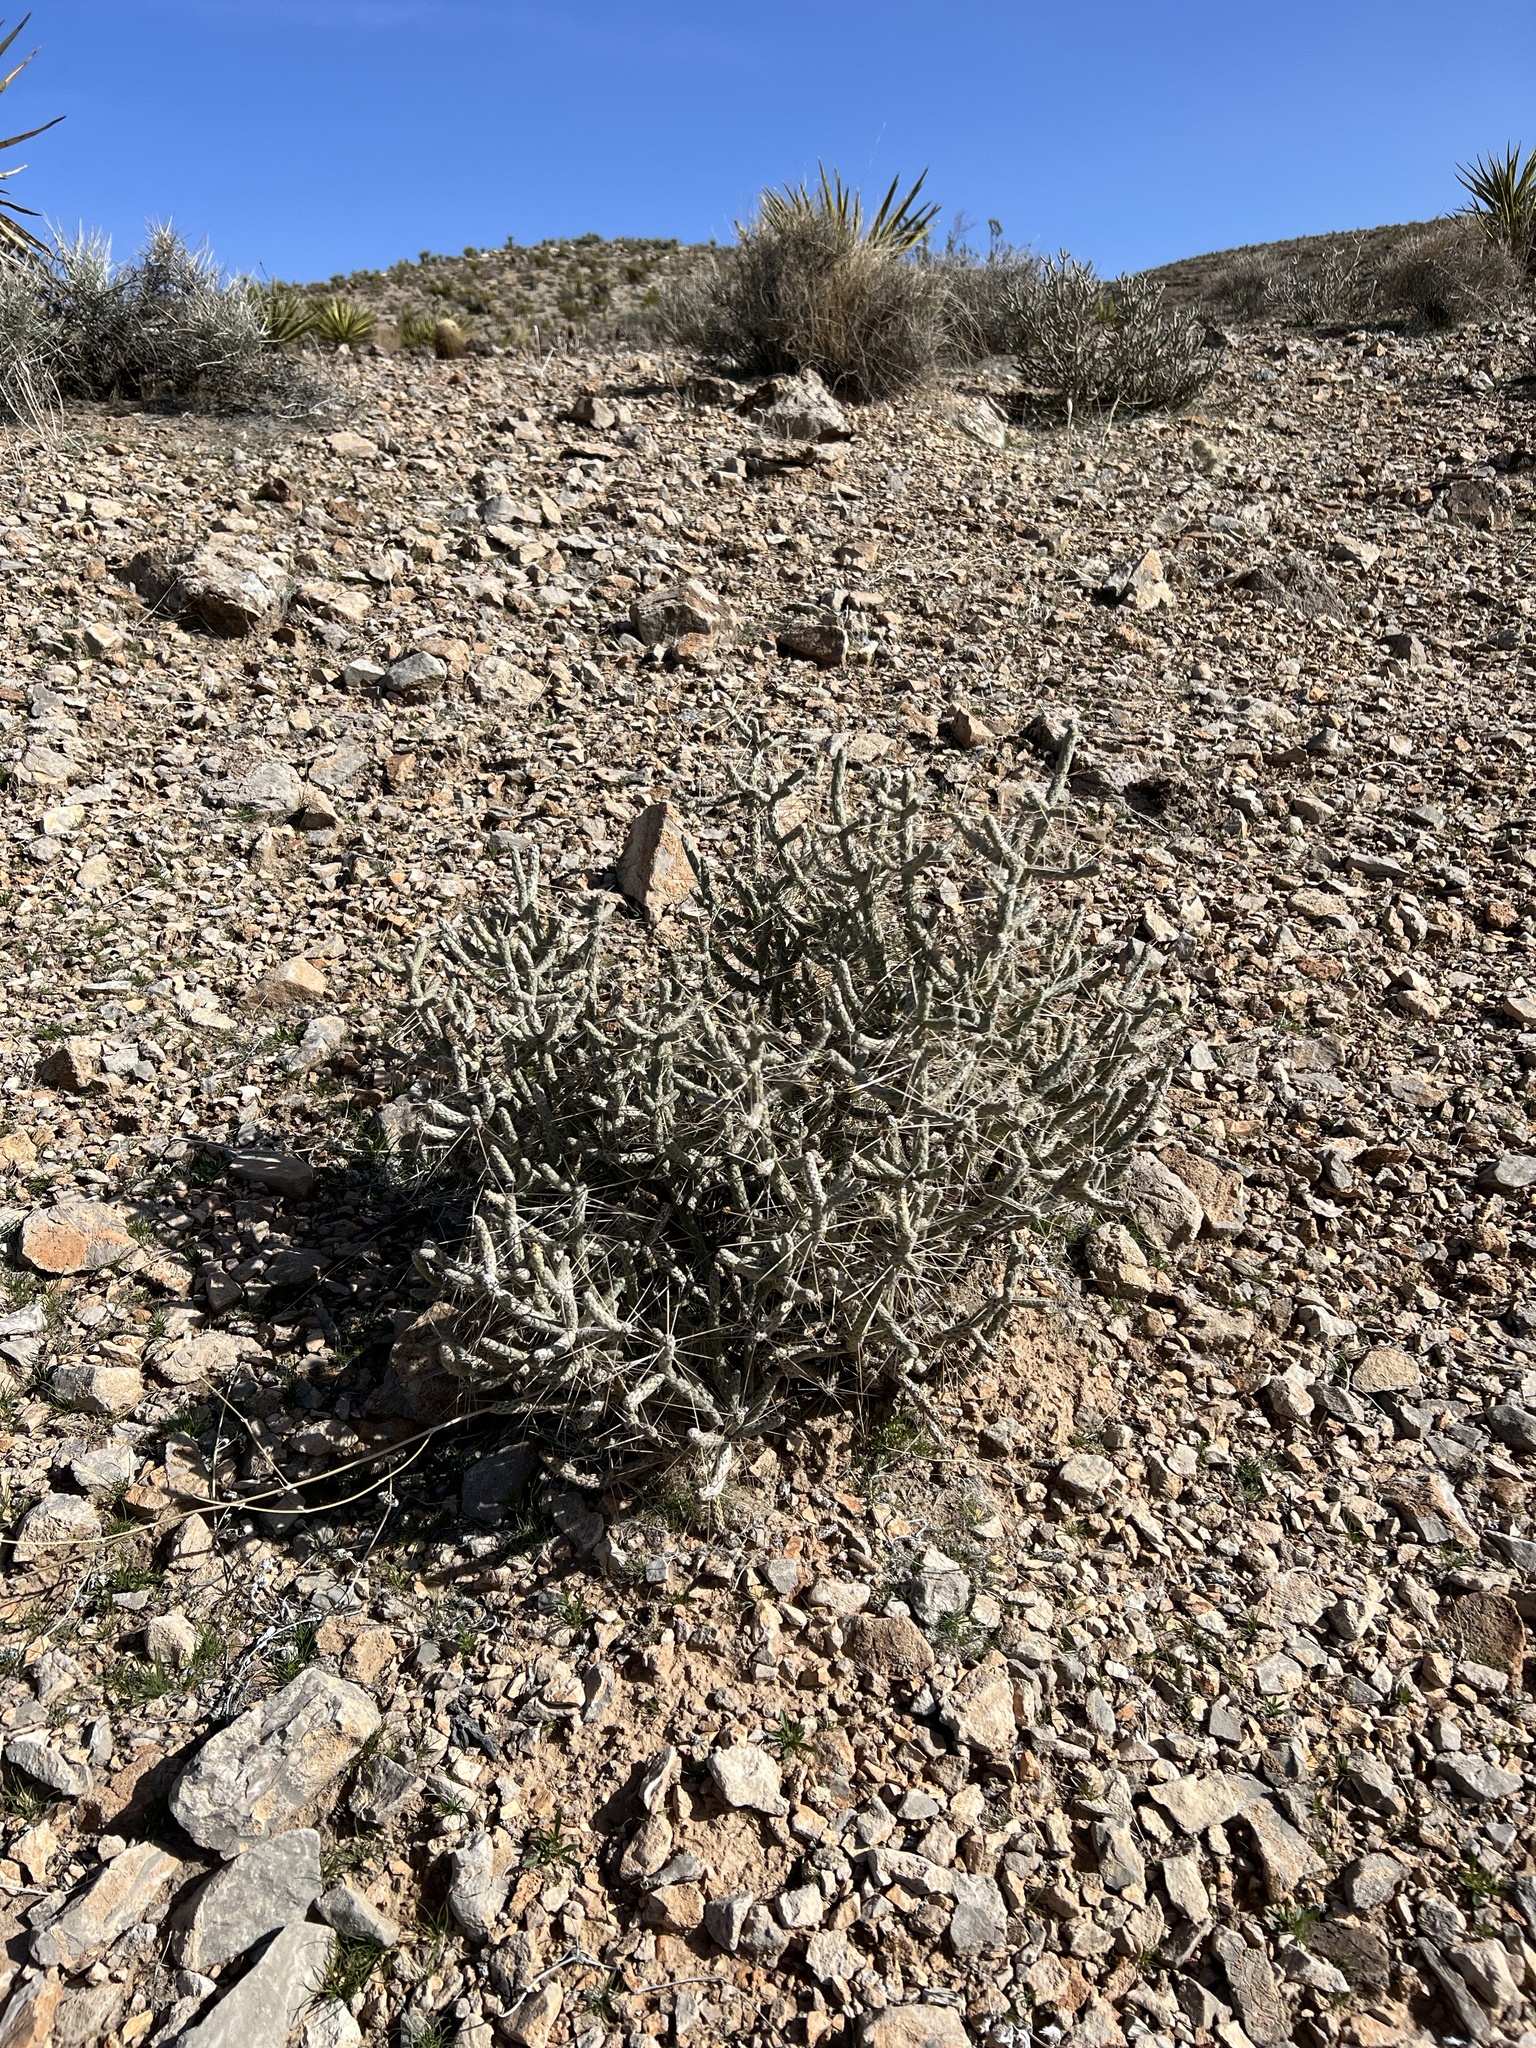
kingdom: Plantae
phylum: Tracheophyta
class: Magnoliopsida
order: Caryophyllales
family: Cactaceae
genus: Cylindropuntia
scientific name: Cylindropuntia ramosissima
